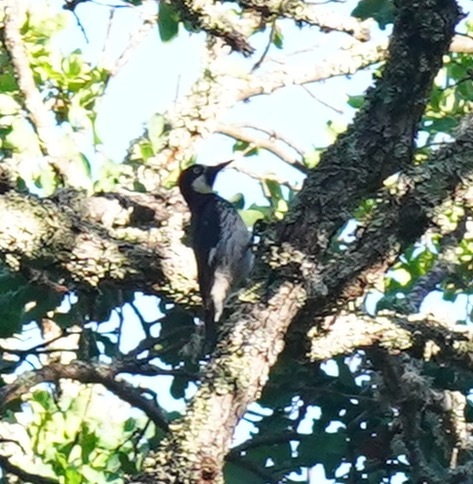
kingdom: Animalia
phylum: Chordata
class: Aves
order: Piciformes
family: Picidae
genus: Melanerpes
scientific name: Melanerpes formicivorus
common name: Acorn woodpecker
